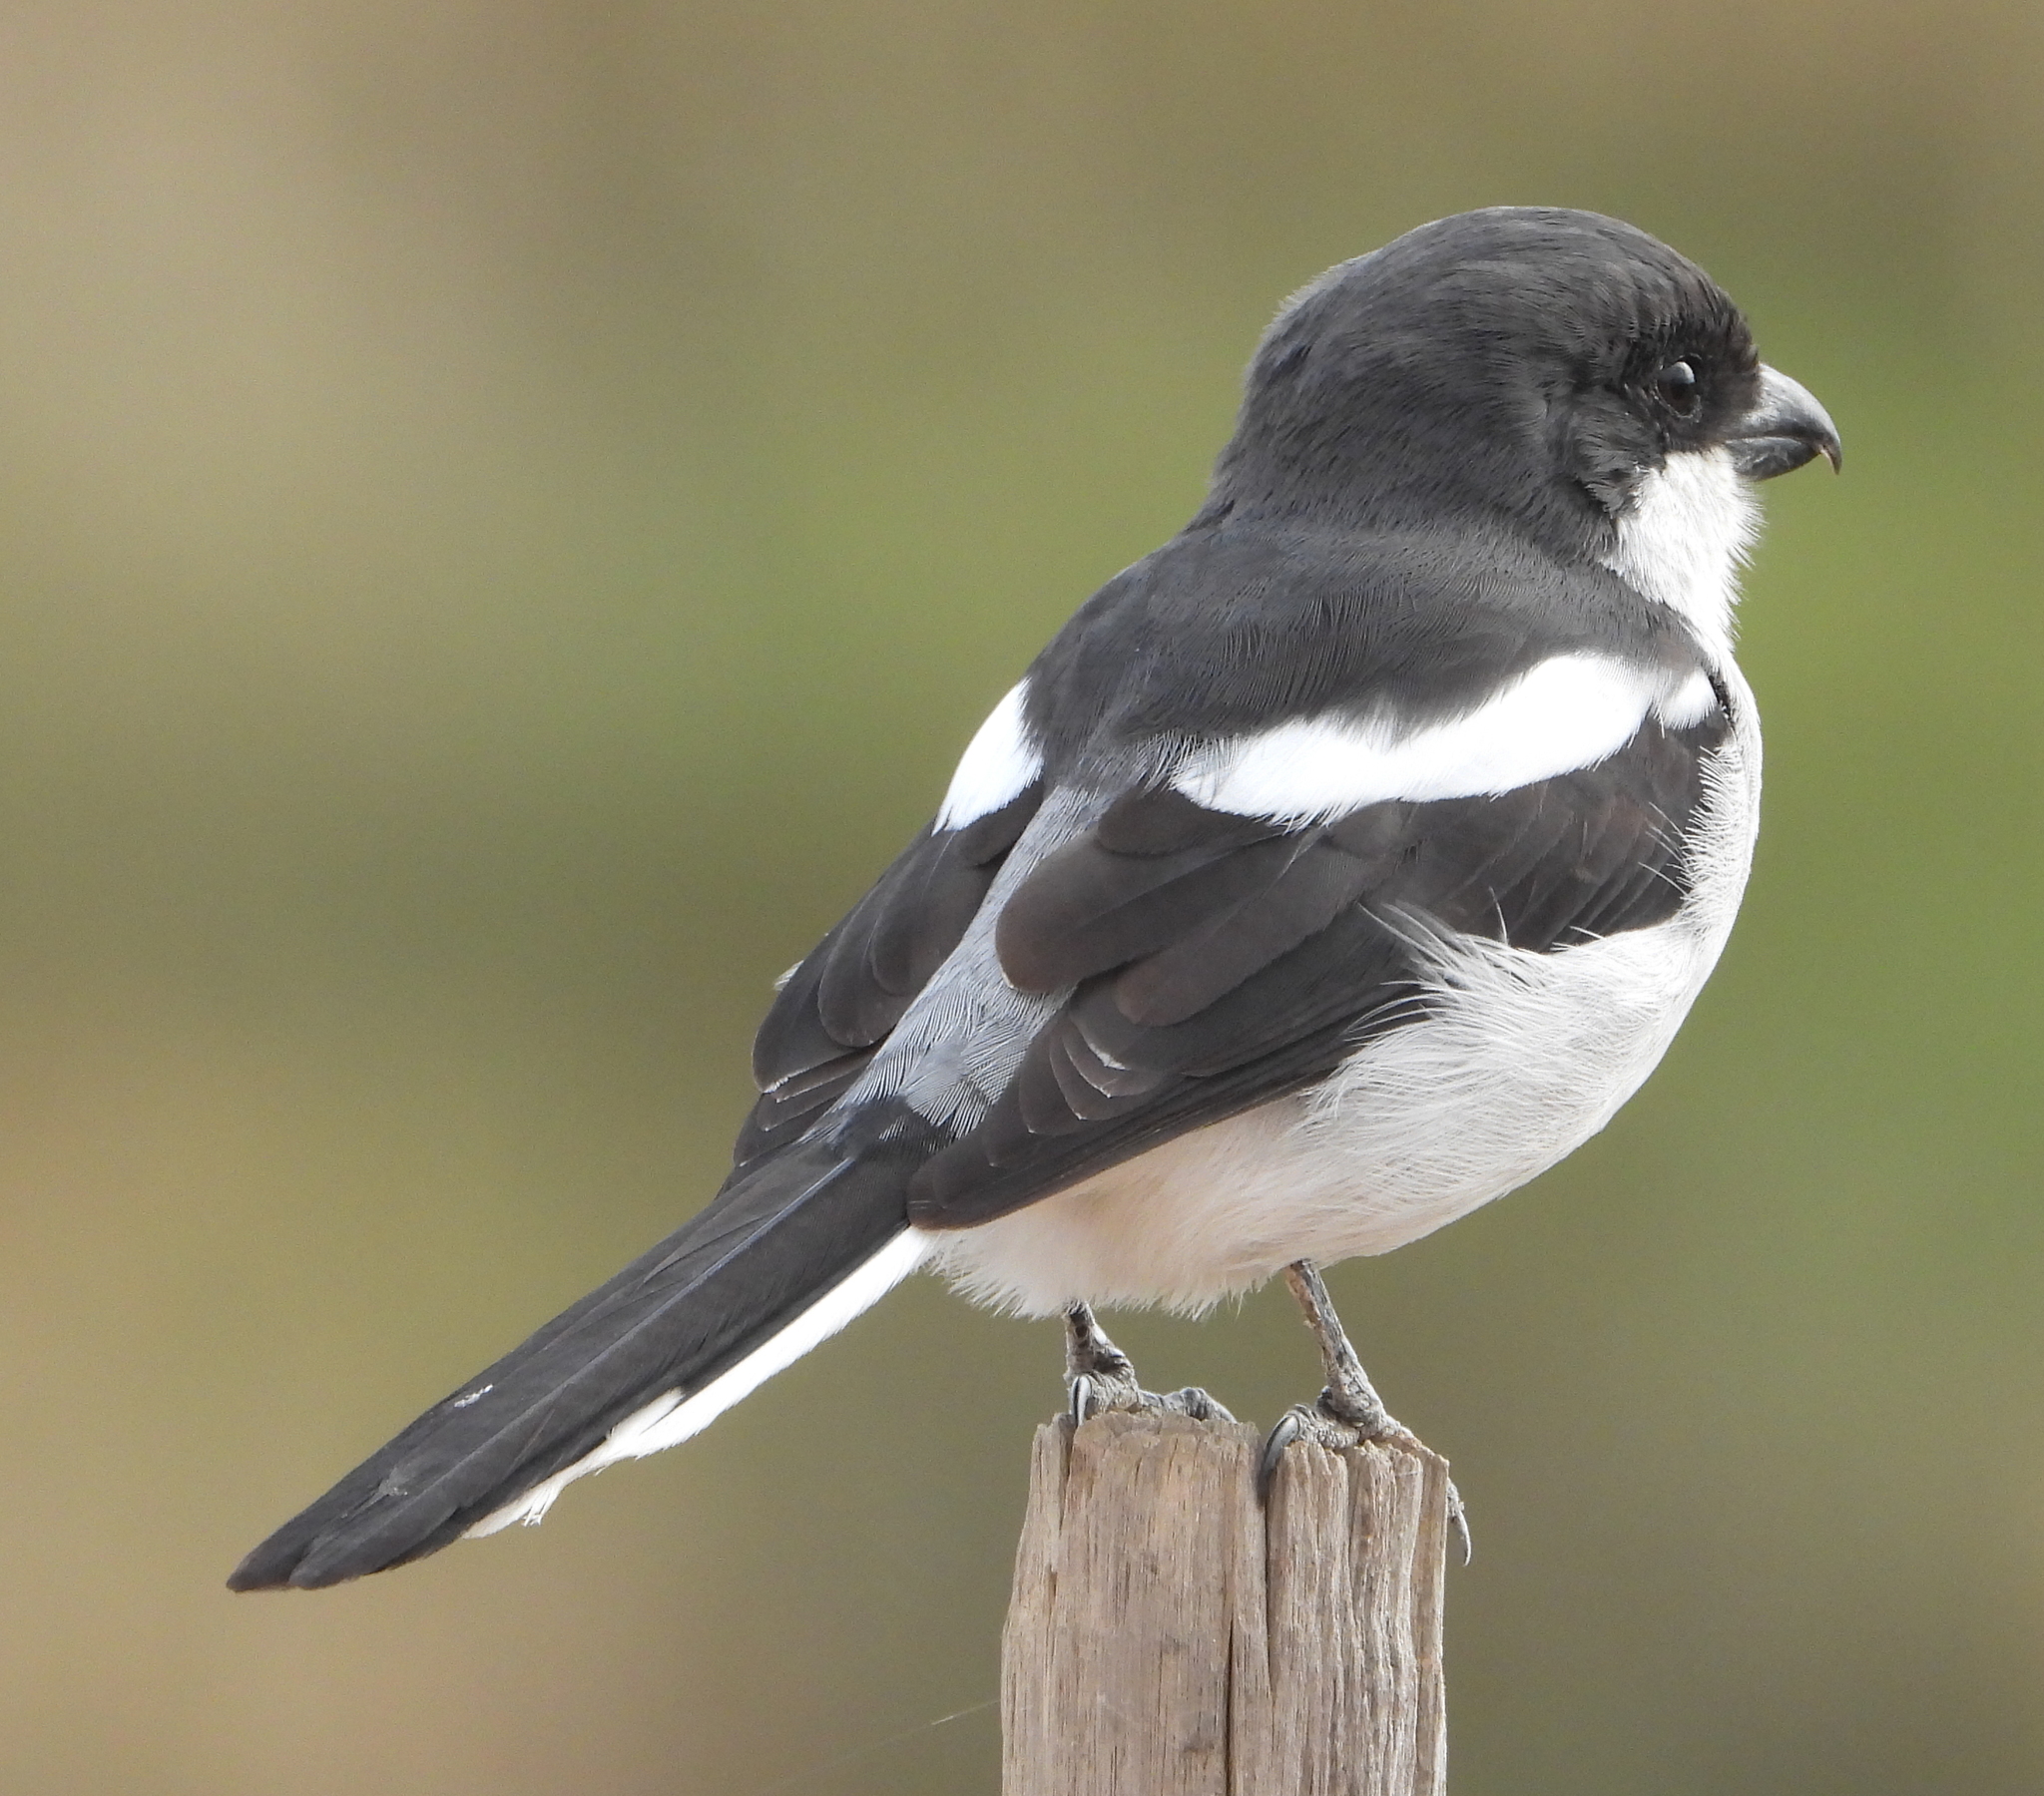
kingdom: Animalia
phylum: Chordata
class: Aves
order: Passeriformes
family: Laniidae
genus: Lanius
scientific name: Lanius collaris
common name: Southern fiscal
